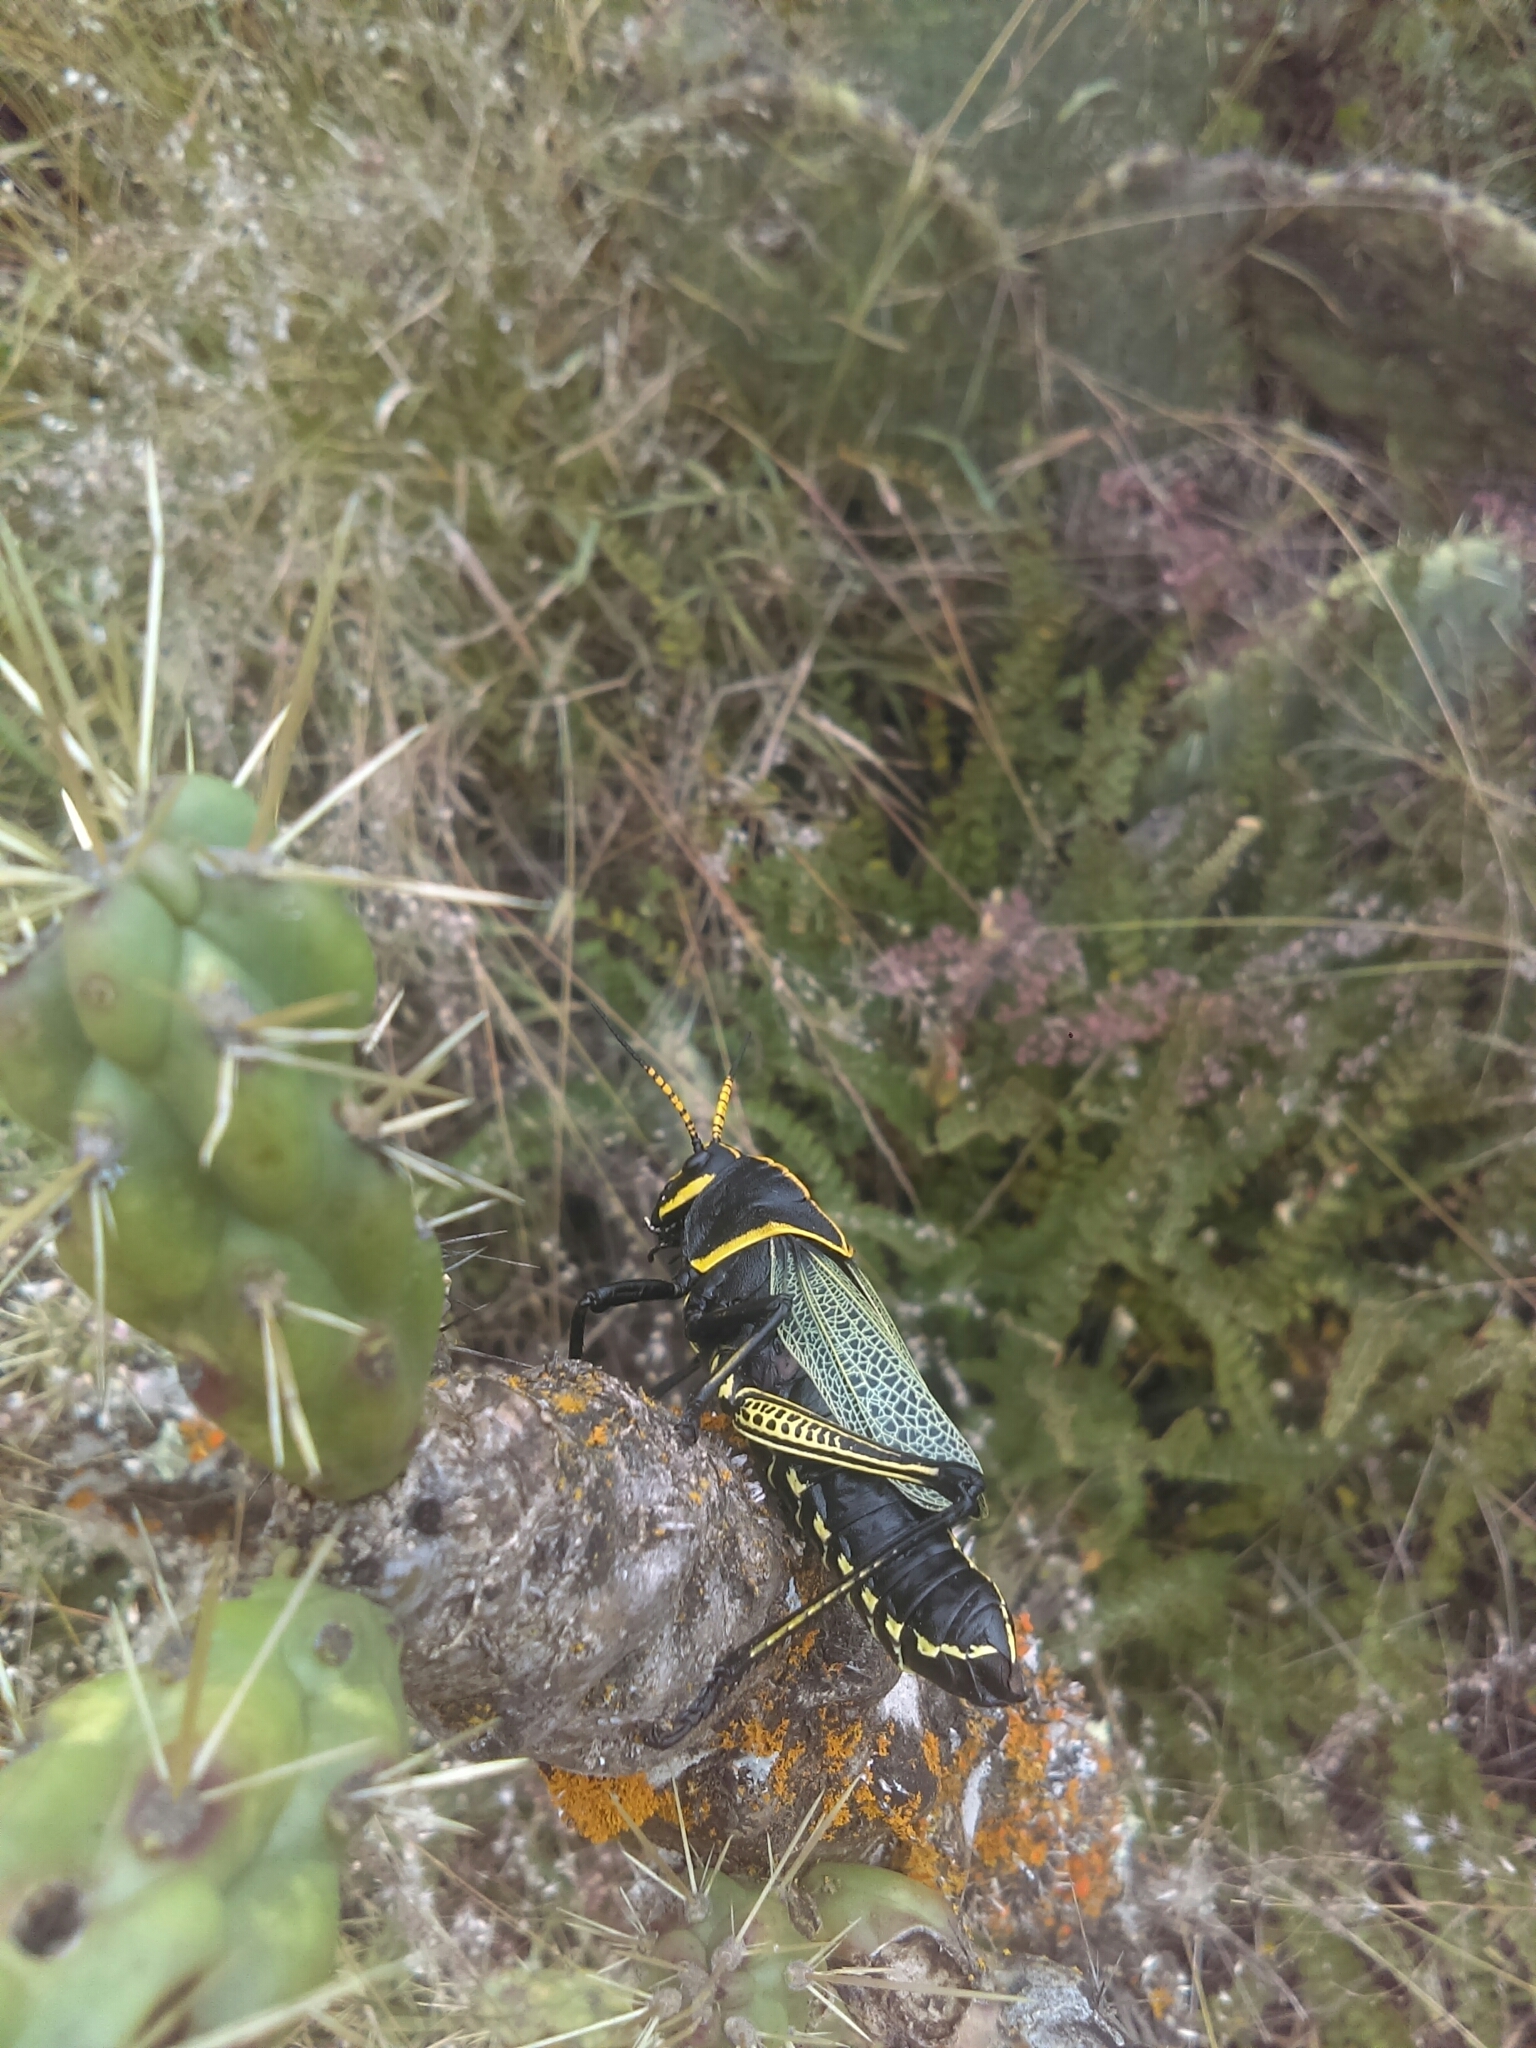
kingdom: Animalia
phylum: Arthropoda
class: Insecta
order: Orthoptera
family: Romaleidae
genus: Romalea
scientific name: Romalea
